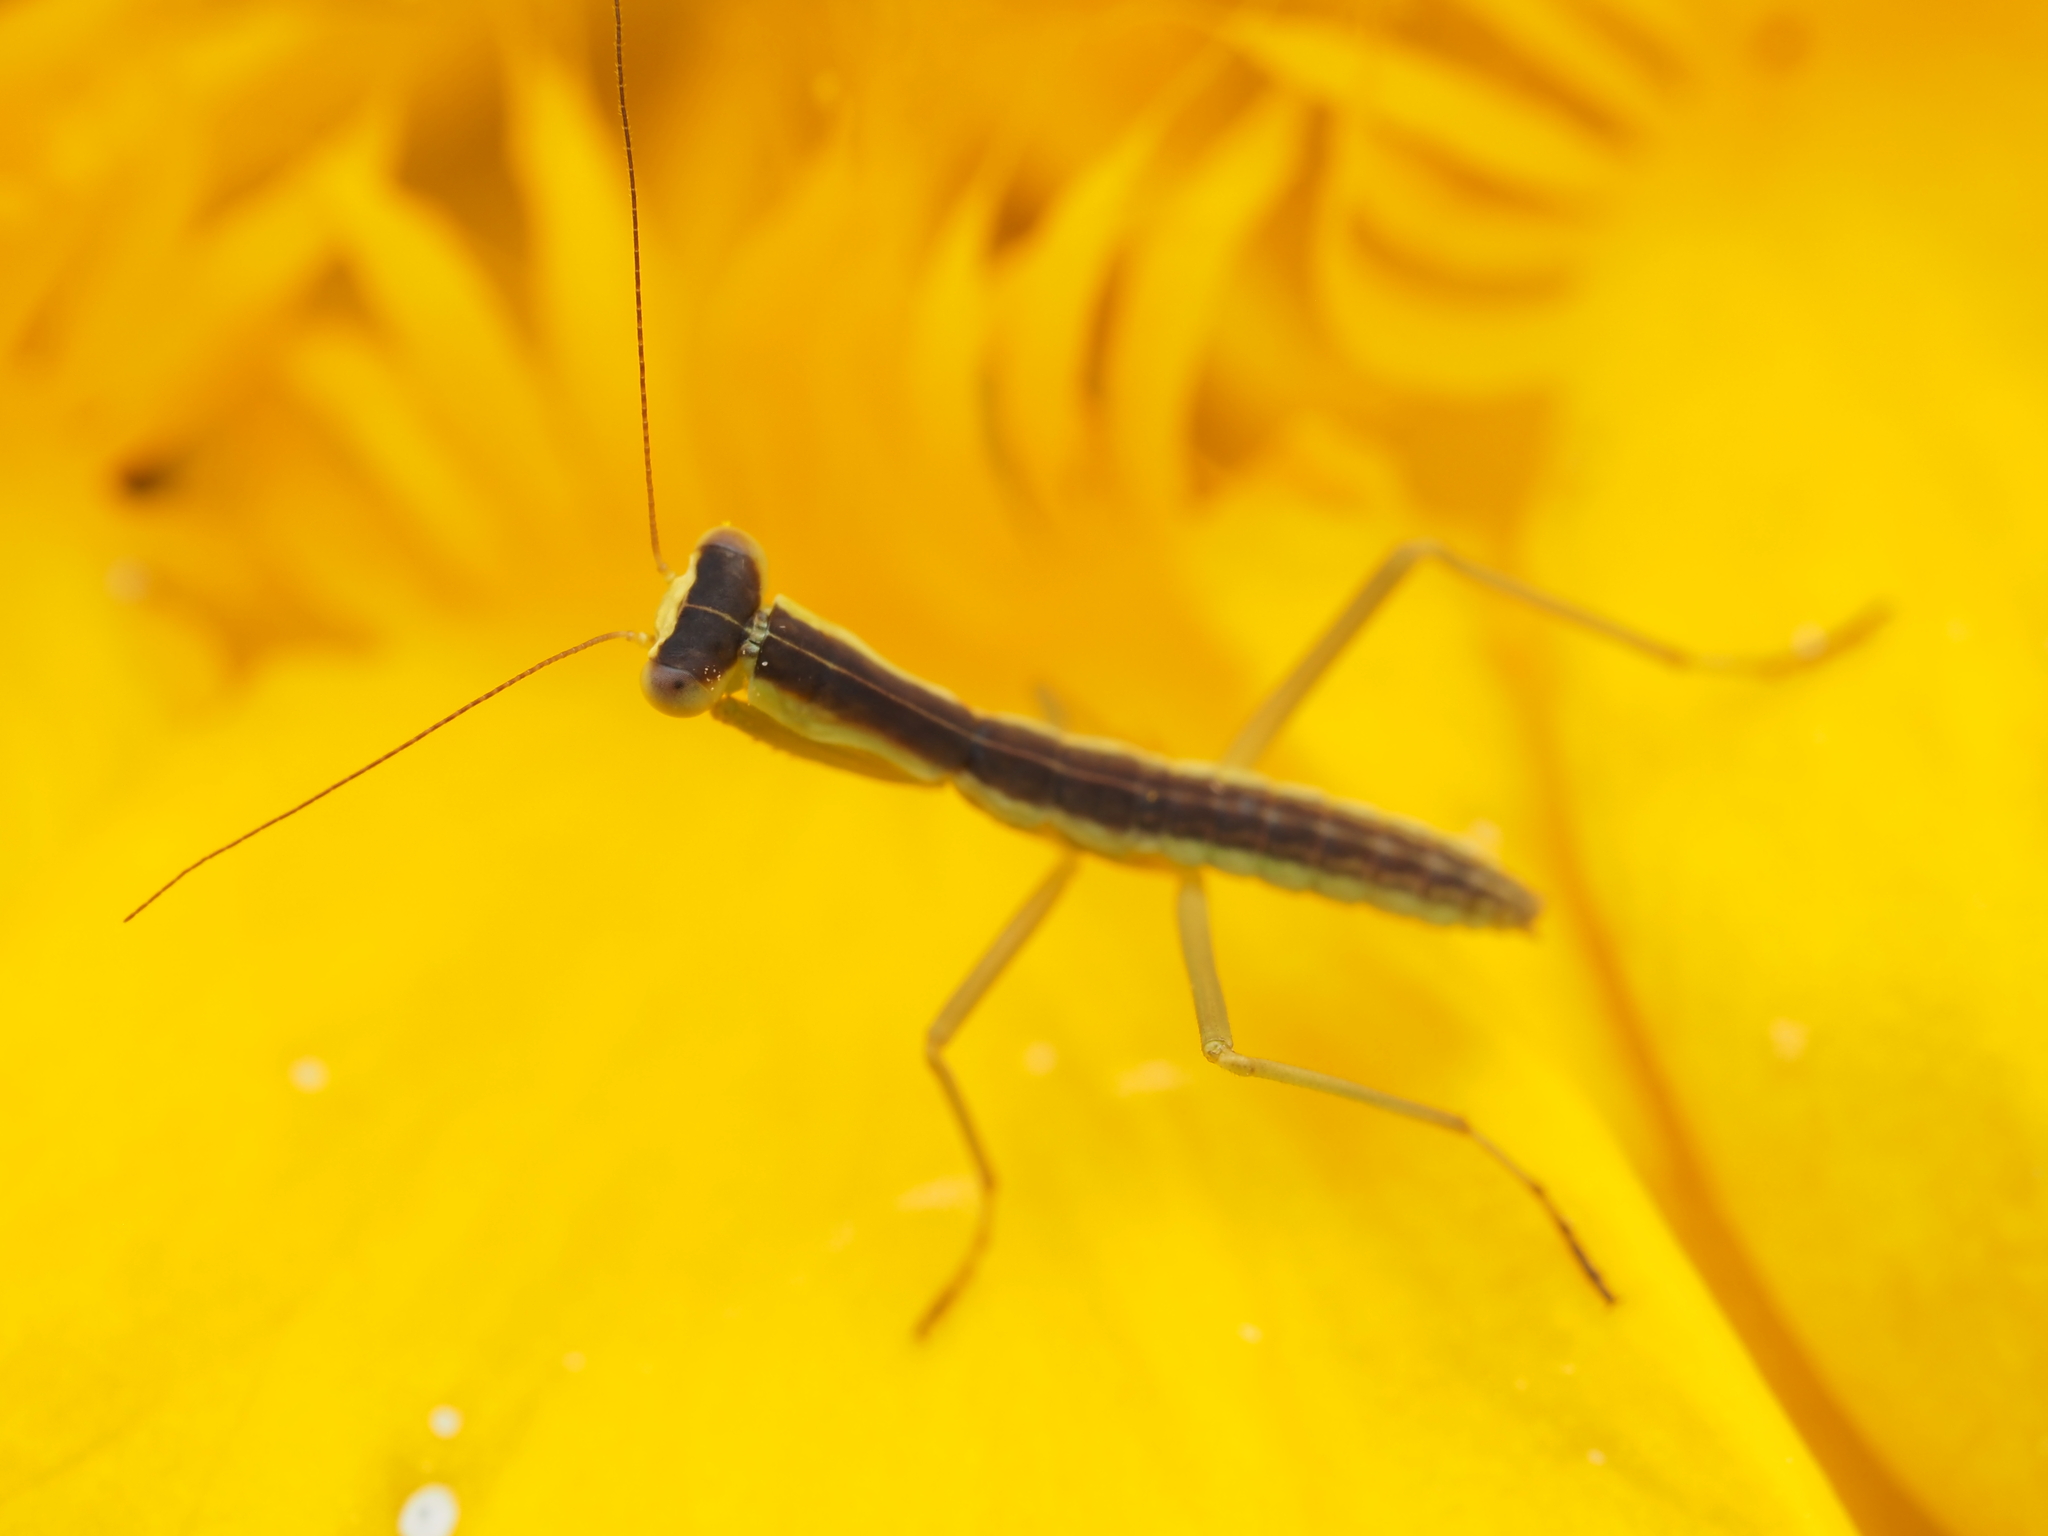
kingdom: Animalia
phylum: Arthropoda
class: Insecta
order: Mantodea
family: Mantidae
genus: Orthodera
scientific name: Orthodera novaezealandiae
